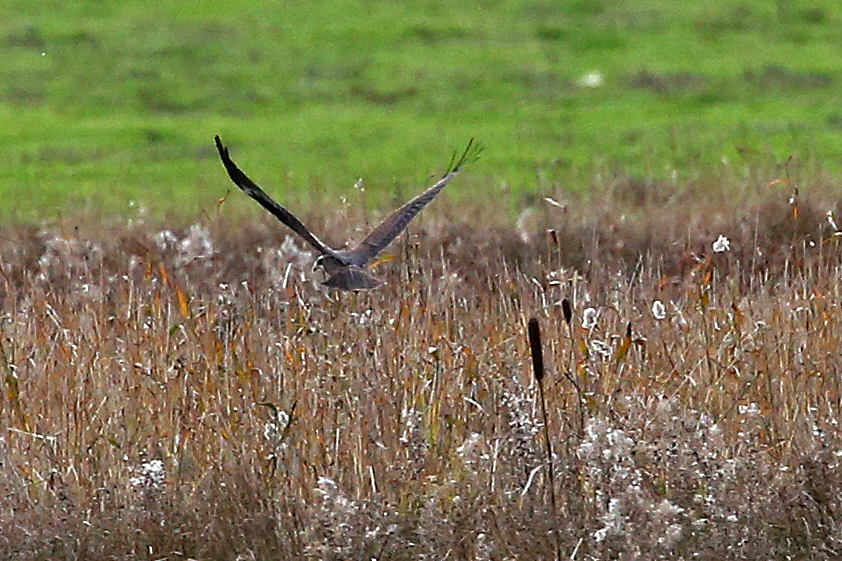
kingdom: Animalia
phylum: Chordata
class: Aves
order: Accipitriformes
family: Accipitridae
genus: Circus
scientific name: Circus aeruginosus
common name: Western marsh harrier
